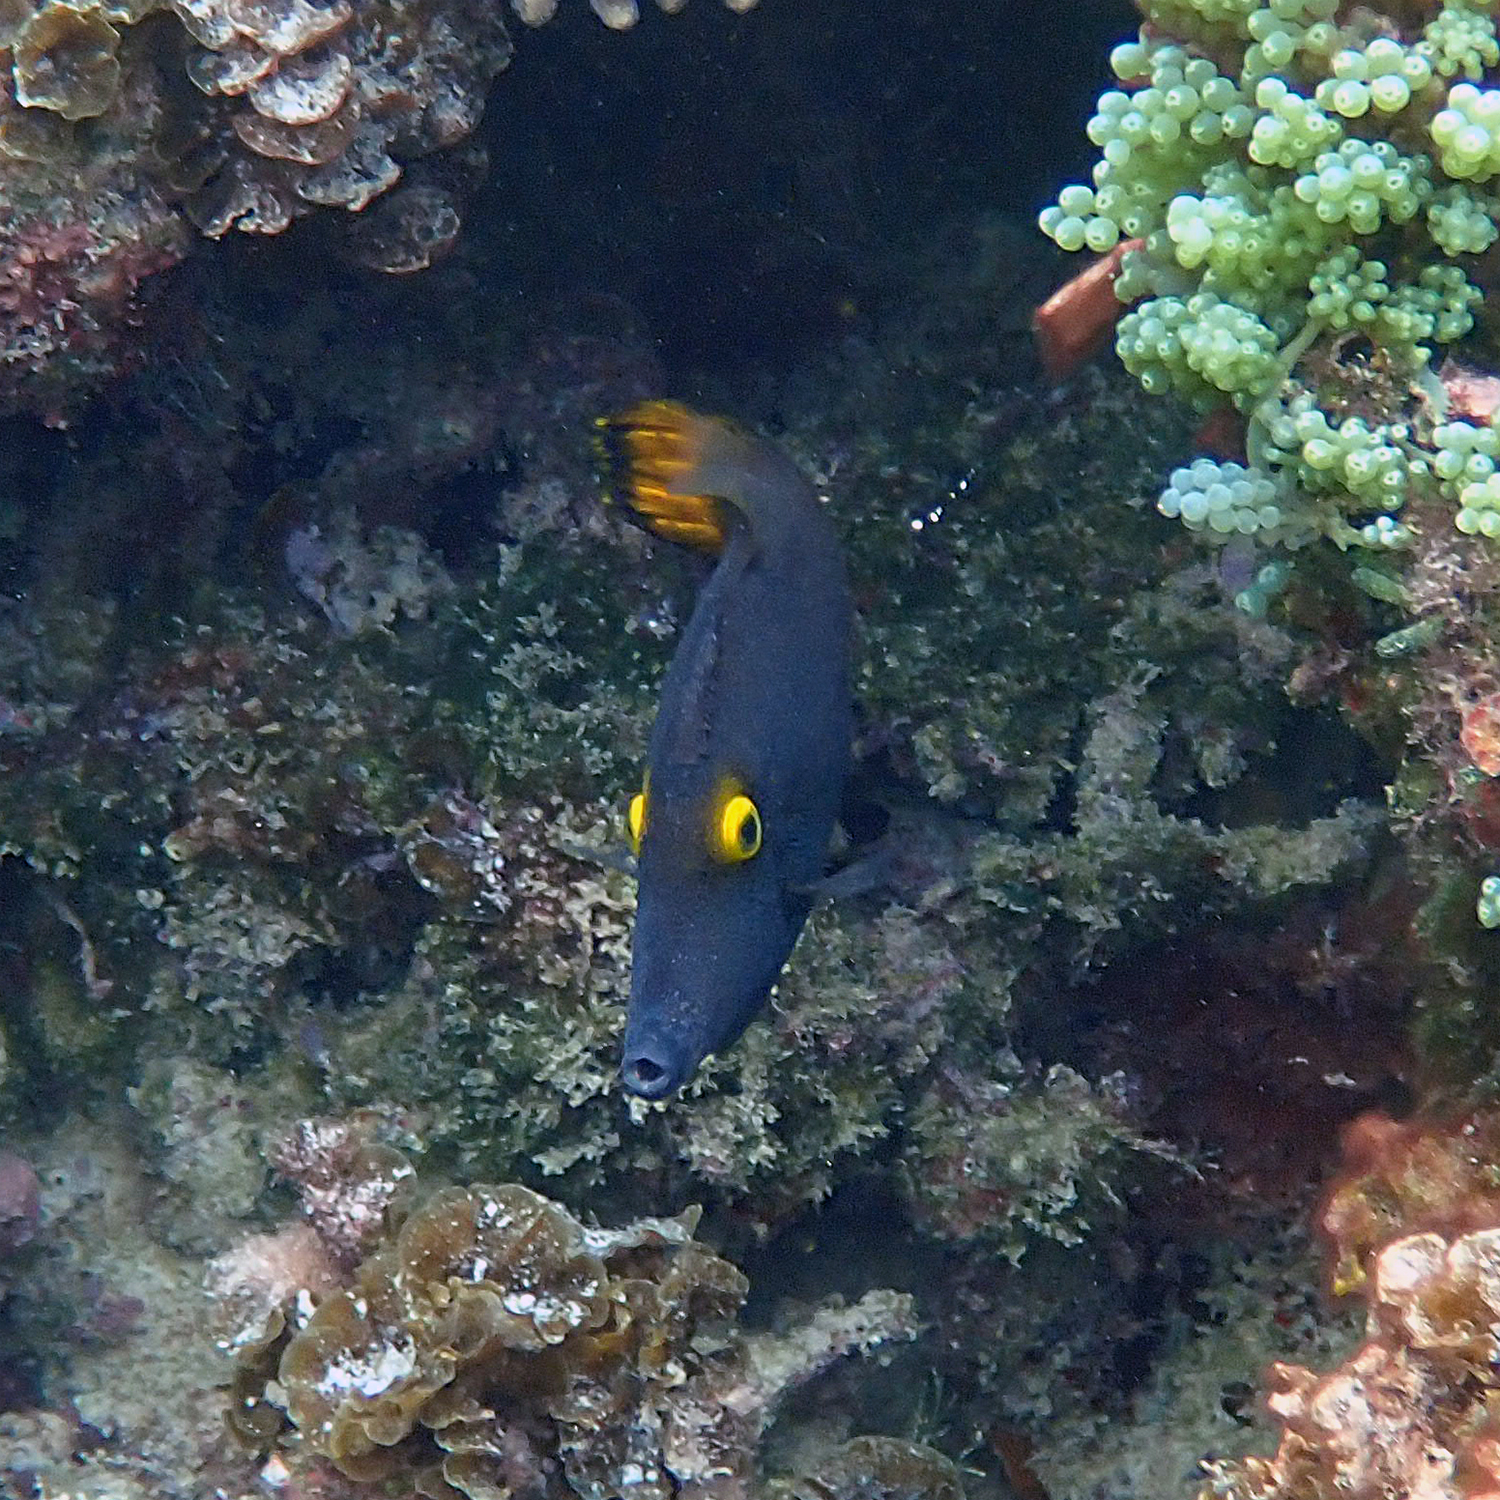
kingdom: Animalia
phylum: Chordata
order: Tetraodontiformes
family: Monacanthidae
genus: Pervagor
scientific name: Pervagor alternans
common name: Yelloweye filefish
